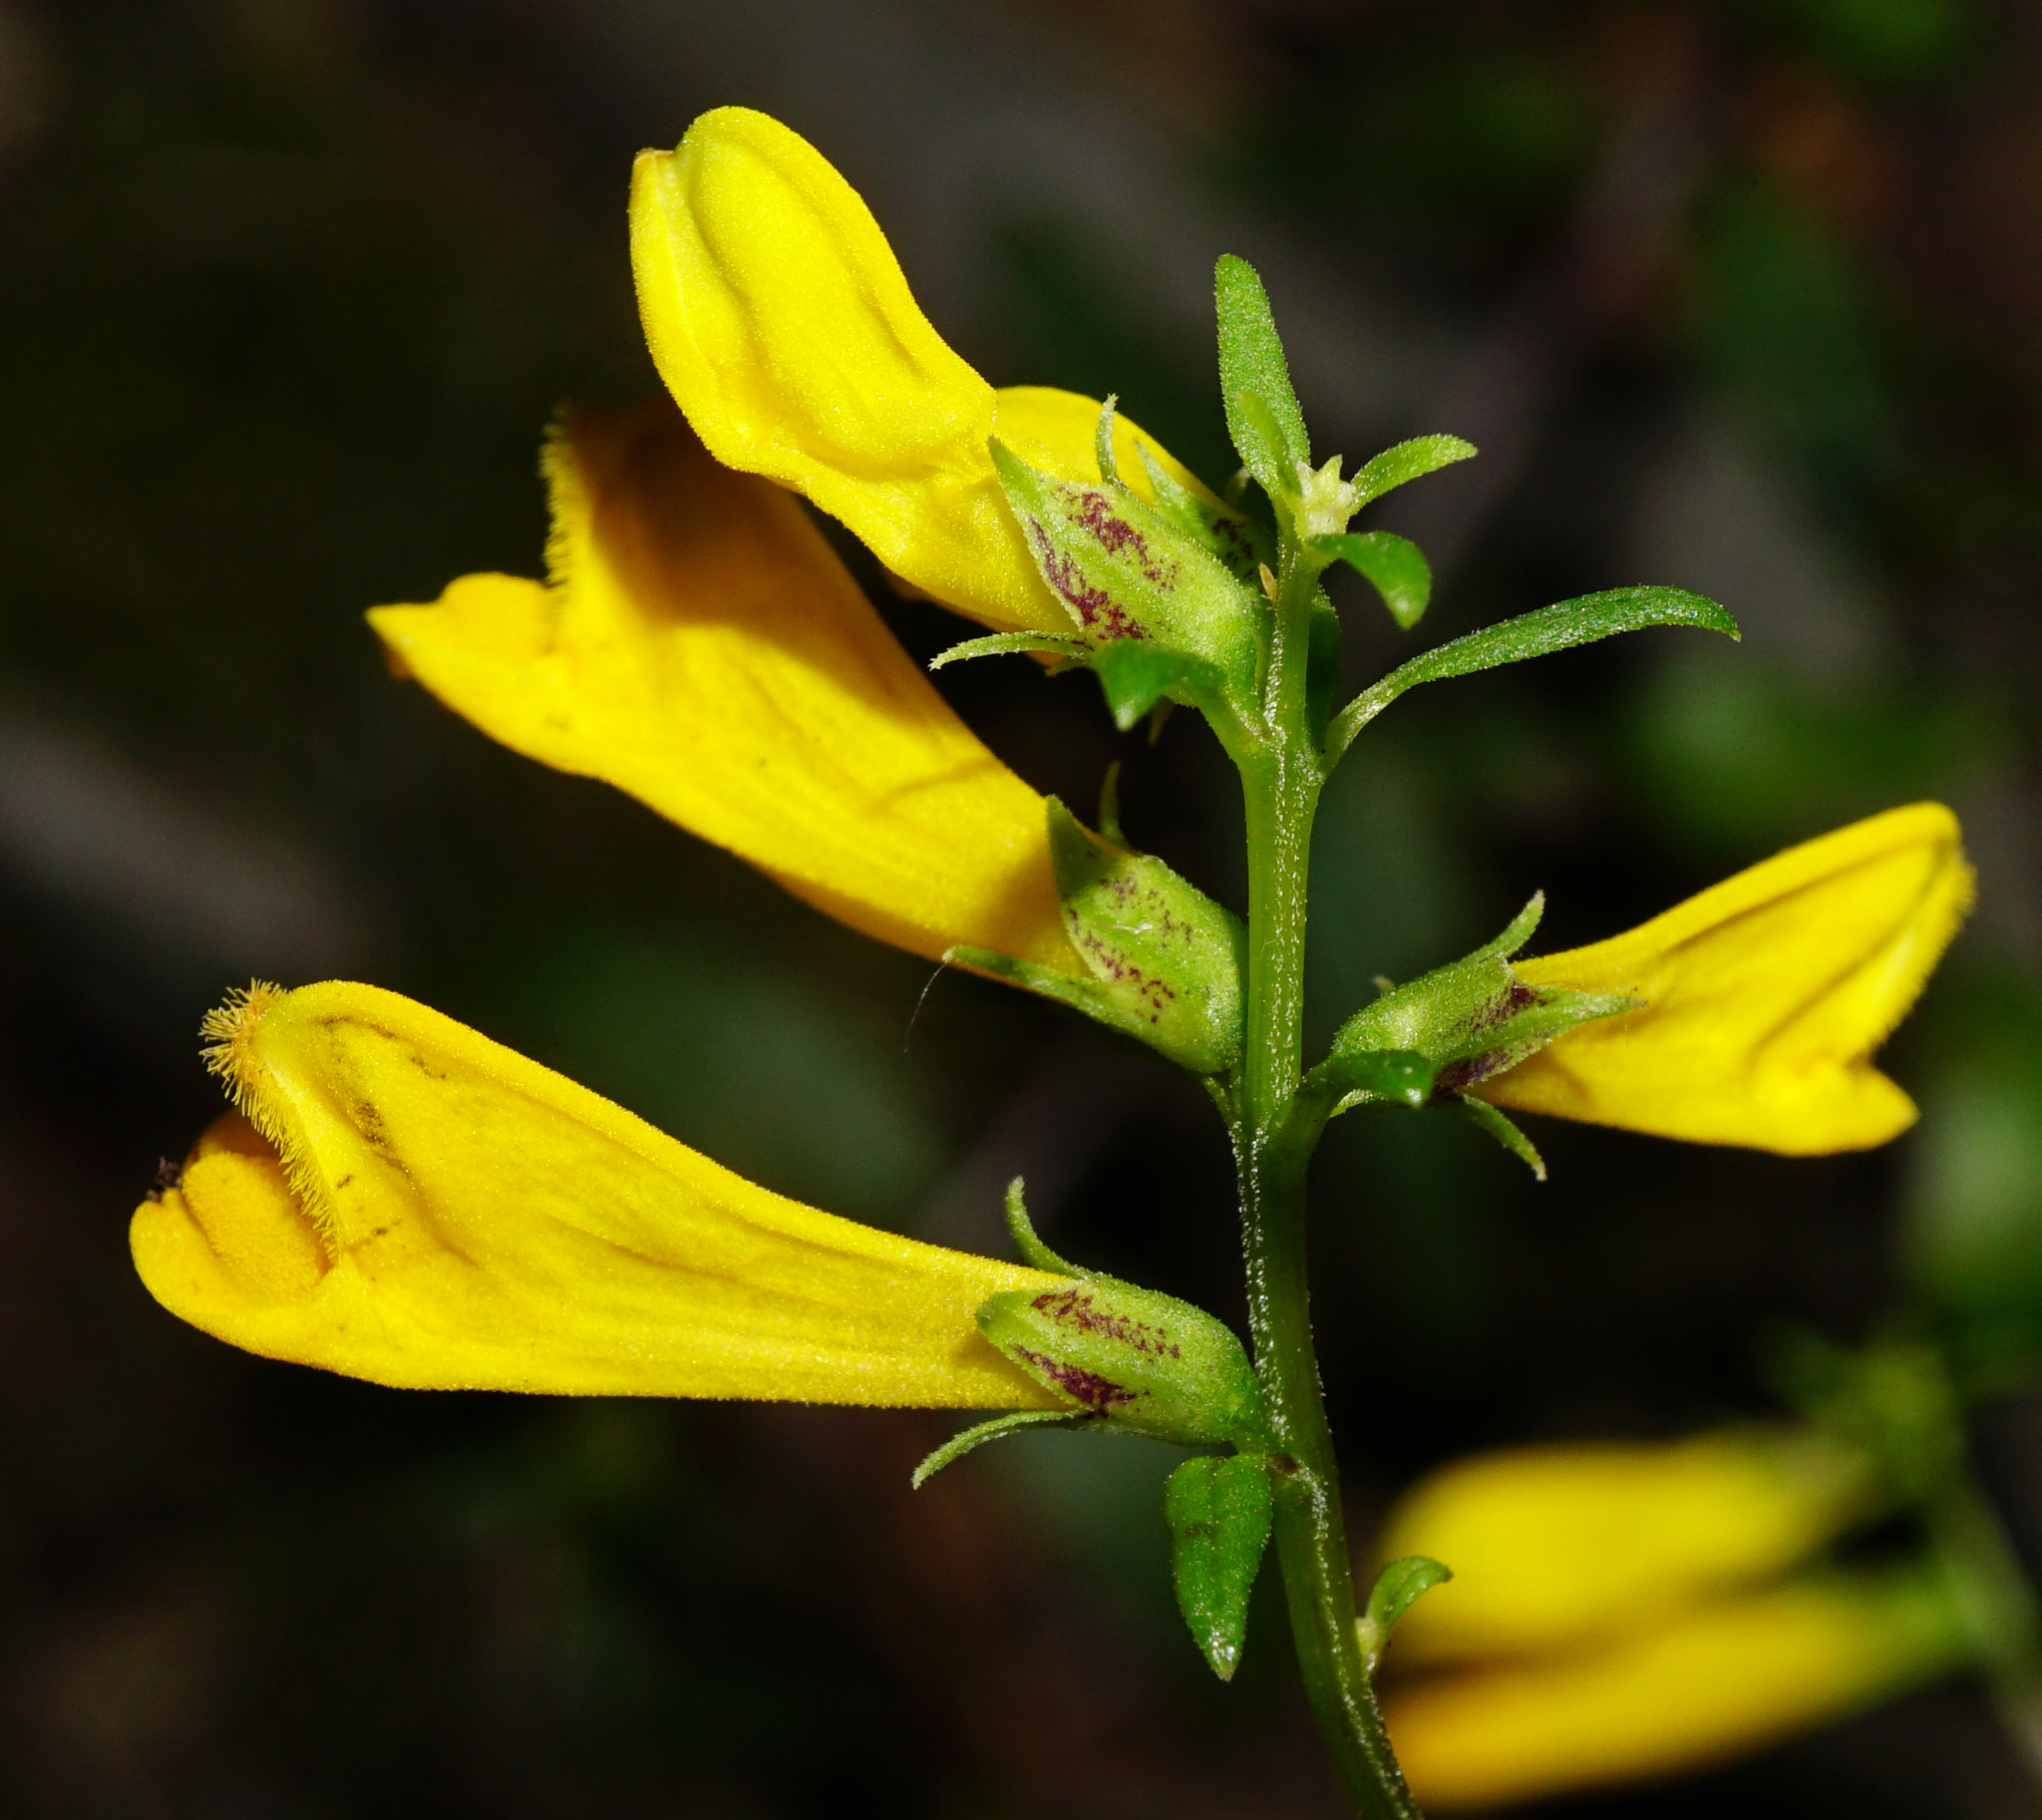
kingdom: Plantae
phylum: Tracheophyta
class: Magnoliopsida
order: Lamiales
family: Orobanchaceae
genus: Melampyrum
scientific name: Melampyrum pratense
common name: Common cow-wheat
